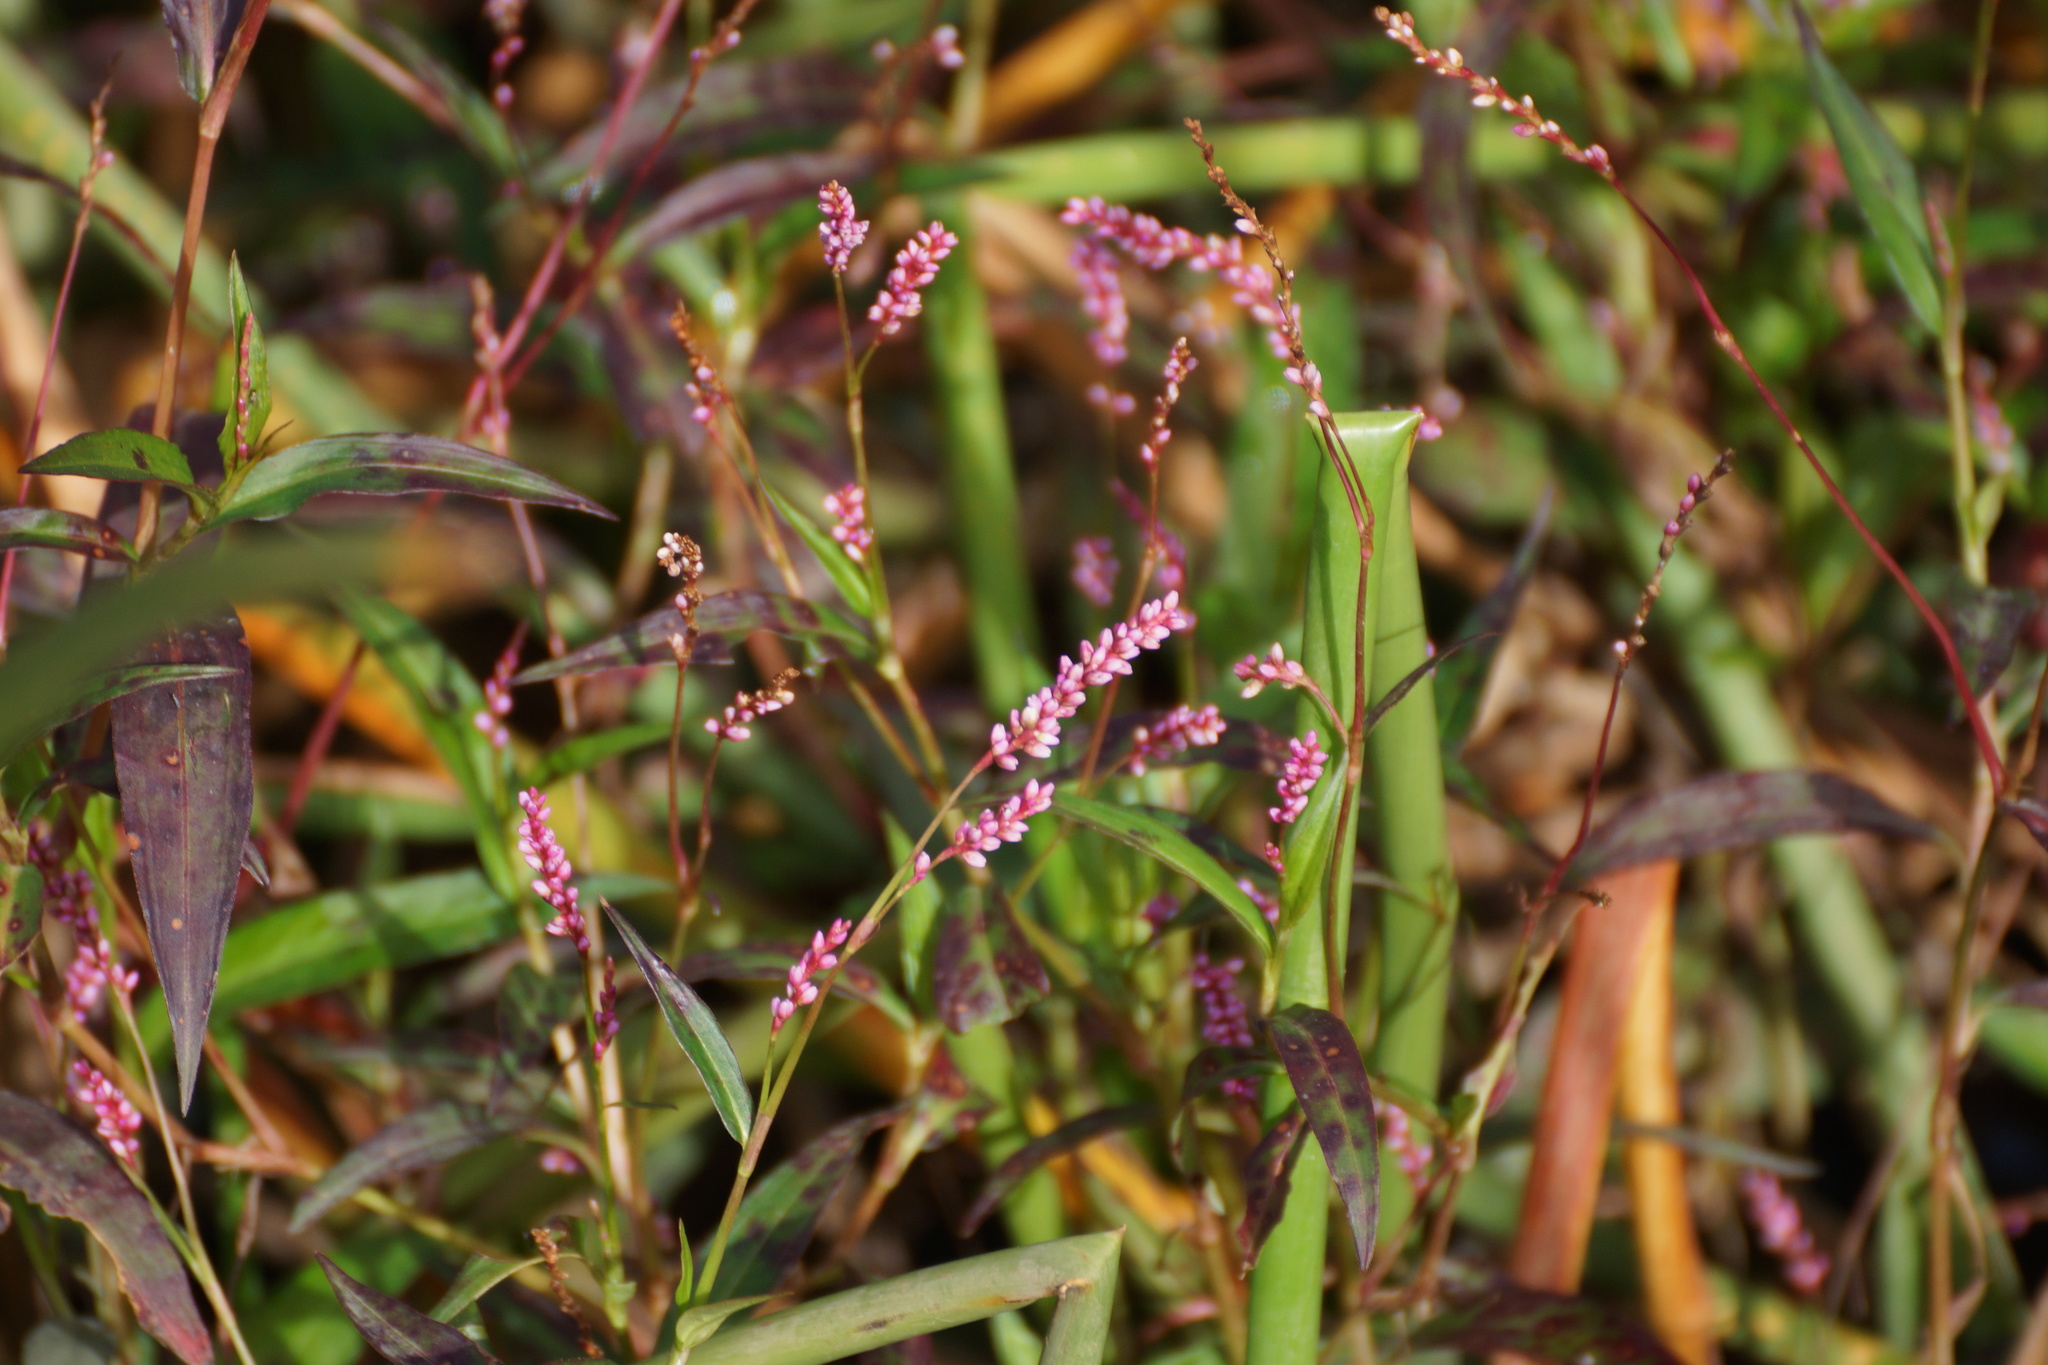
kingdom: Plantae
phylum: Tracheophyta
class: Magnoliopsida
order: Caryophyllales
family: Polygonaceae
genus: Persicaria
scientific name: Persicaria decipiens
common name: Willow-weed
